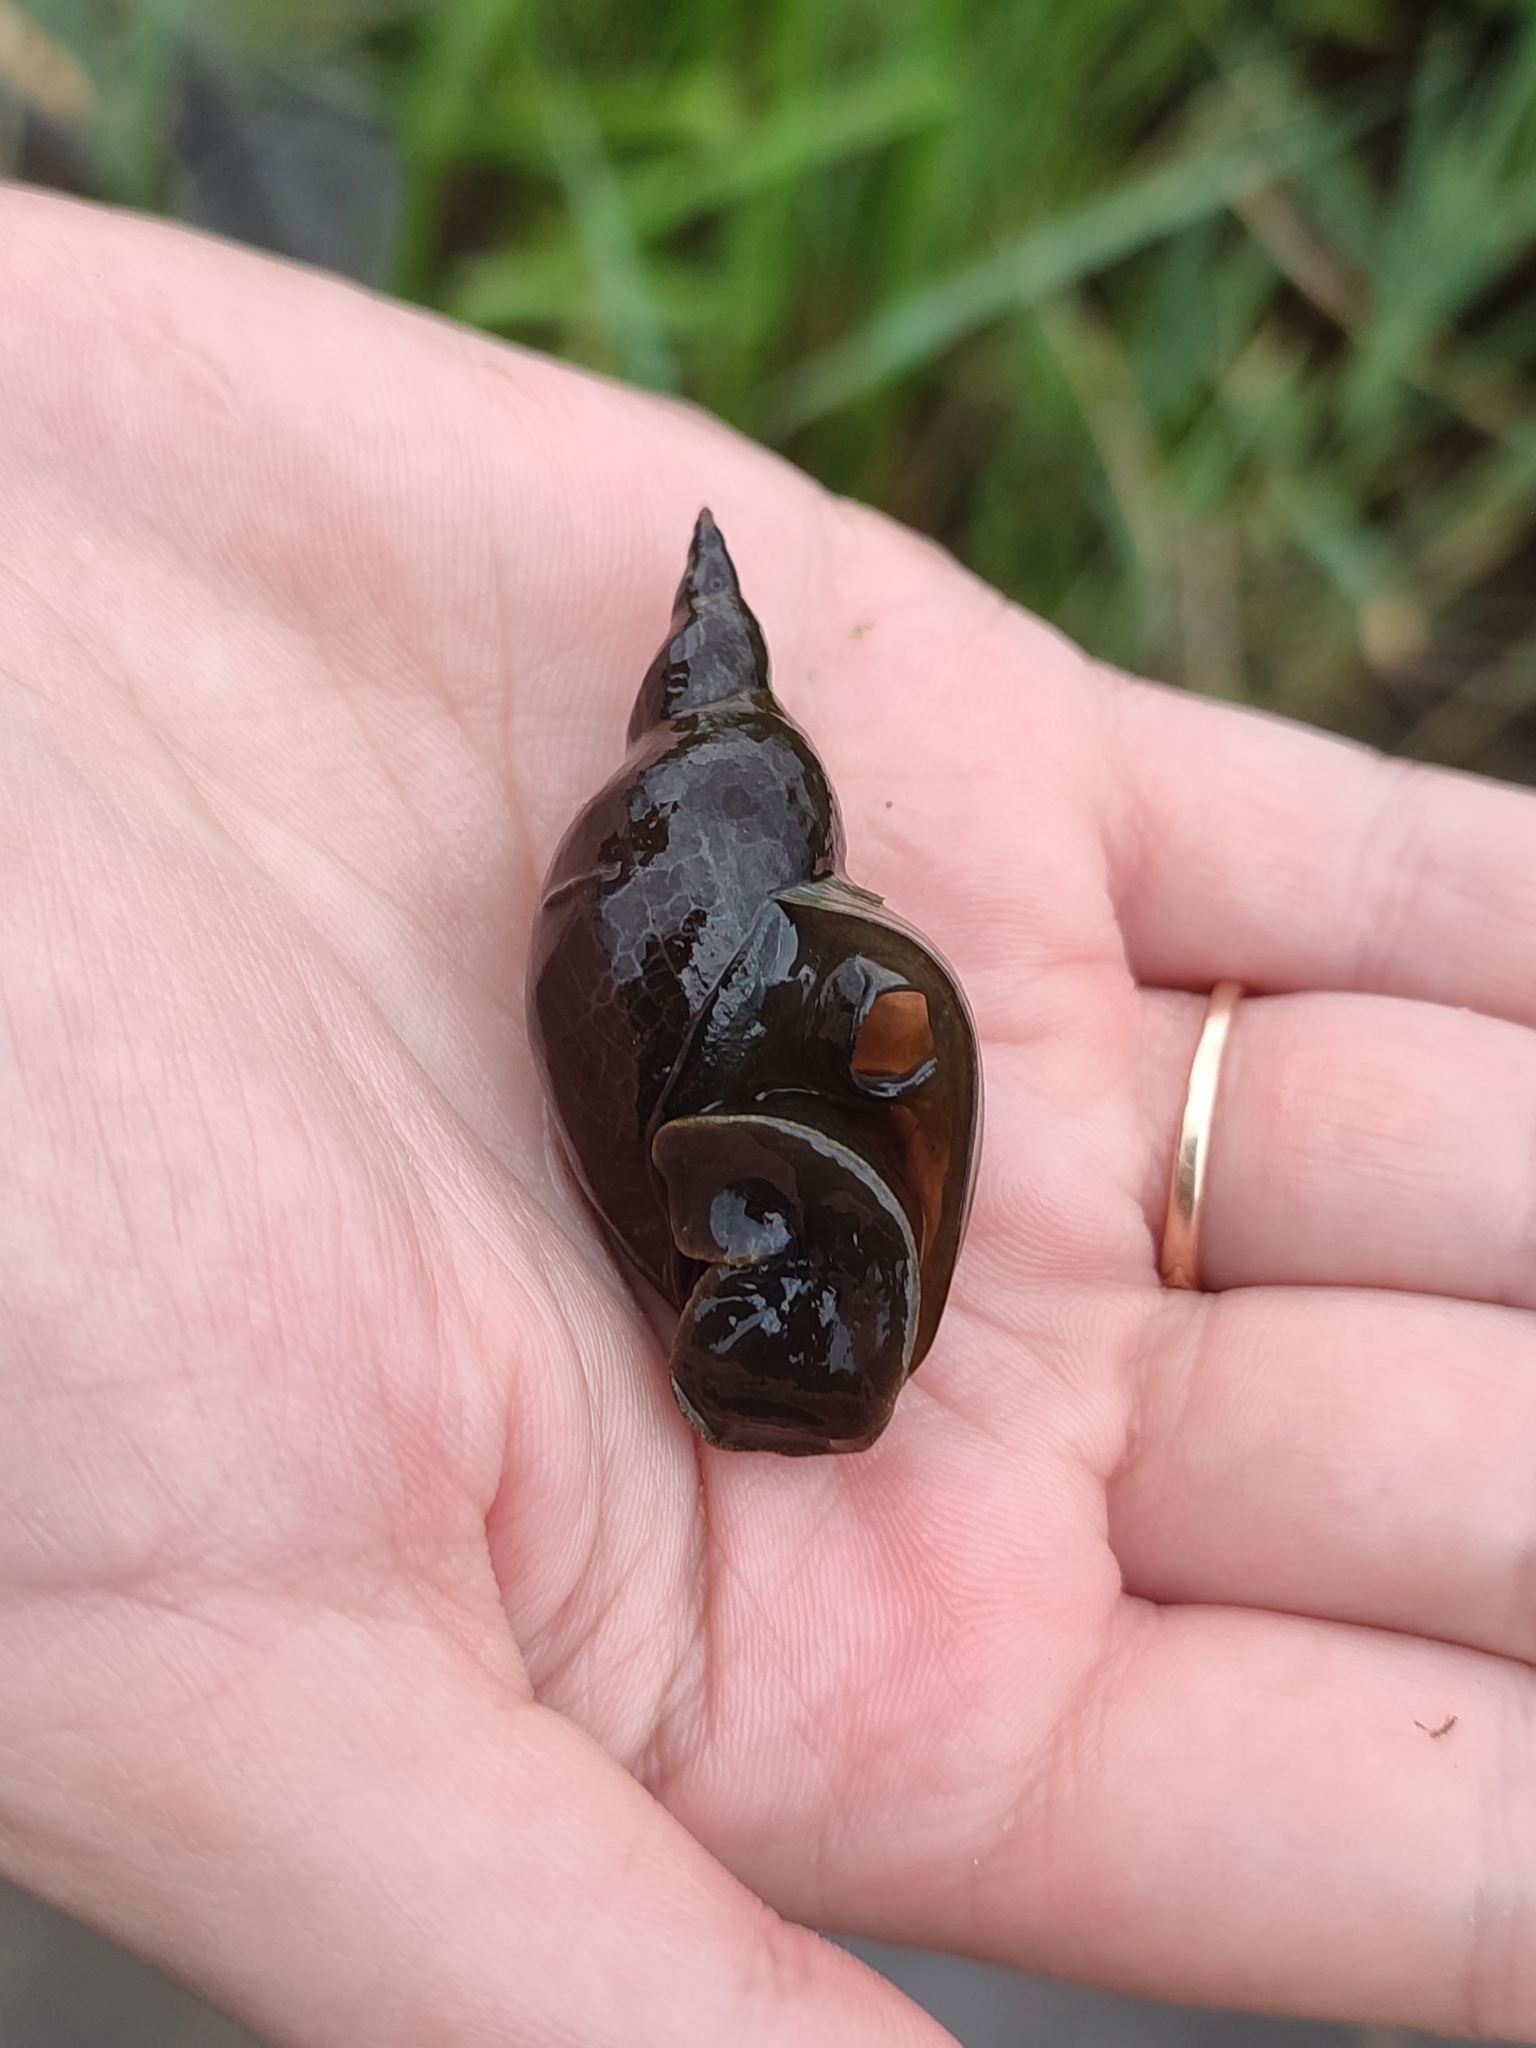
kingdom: Animalia
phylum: Mollusca
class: Gastropoda
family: Lymnaeidae
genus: Lymnaea
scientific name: Lymnaea stagnalis
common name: Great pond snail
